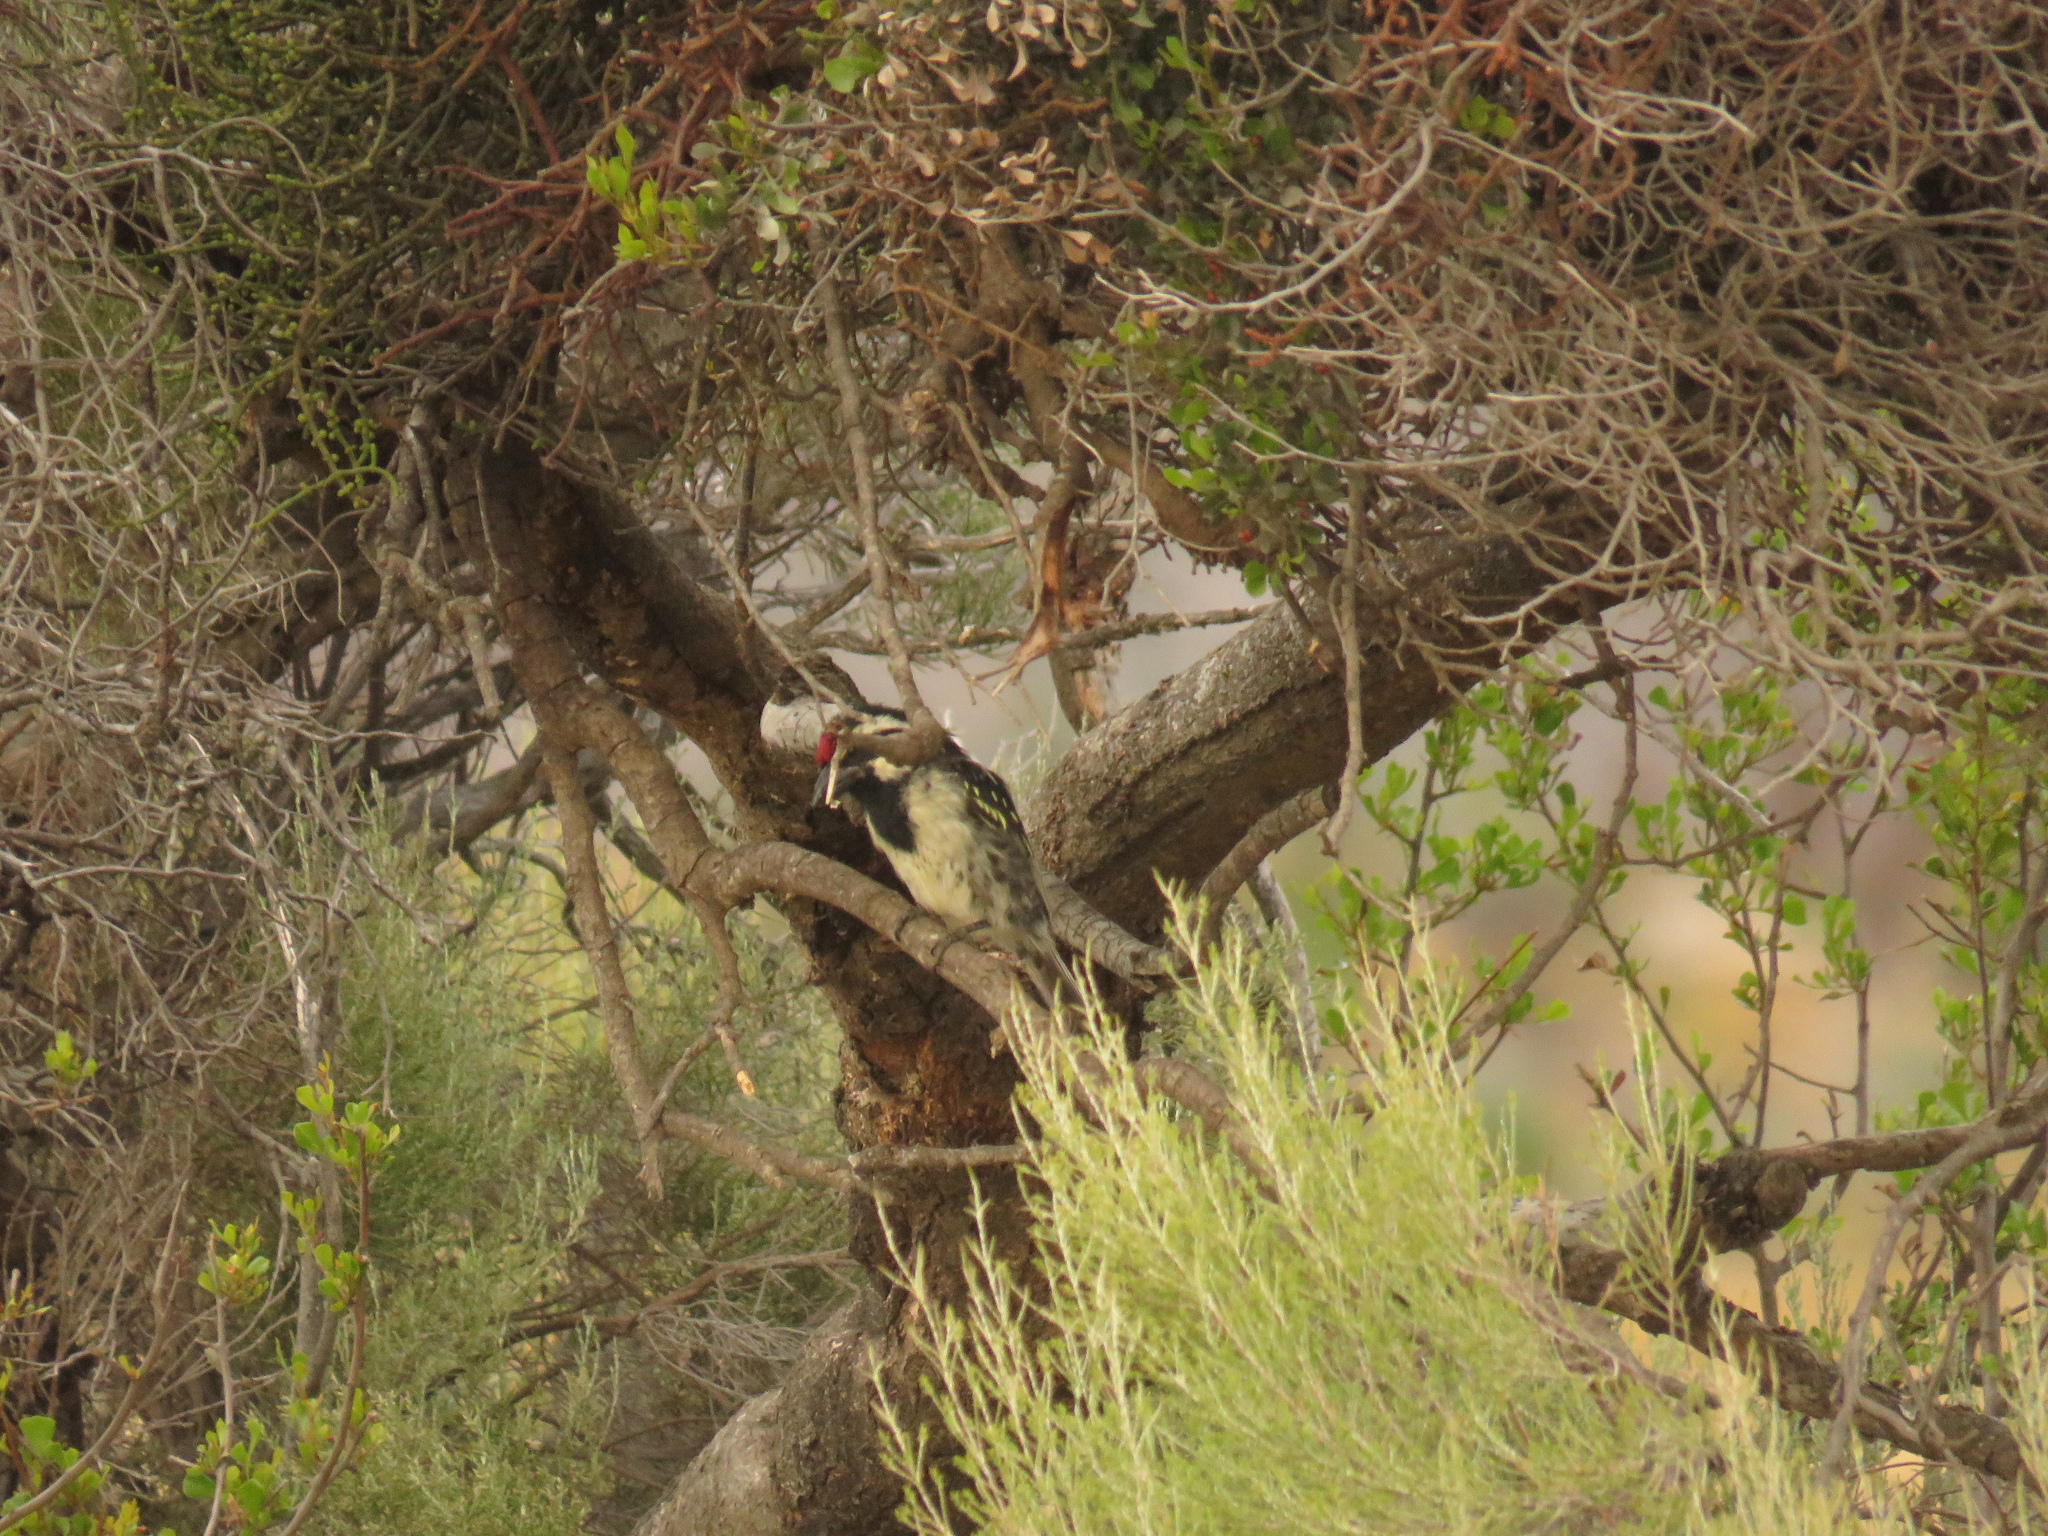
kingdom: Animalia
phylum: Chordata
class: Aves
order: Piciformes
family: Lybiidae
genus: Tricholaema
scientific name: Tricholaema leucomelas
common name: Acacia pied barbet
